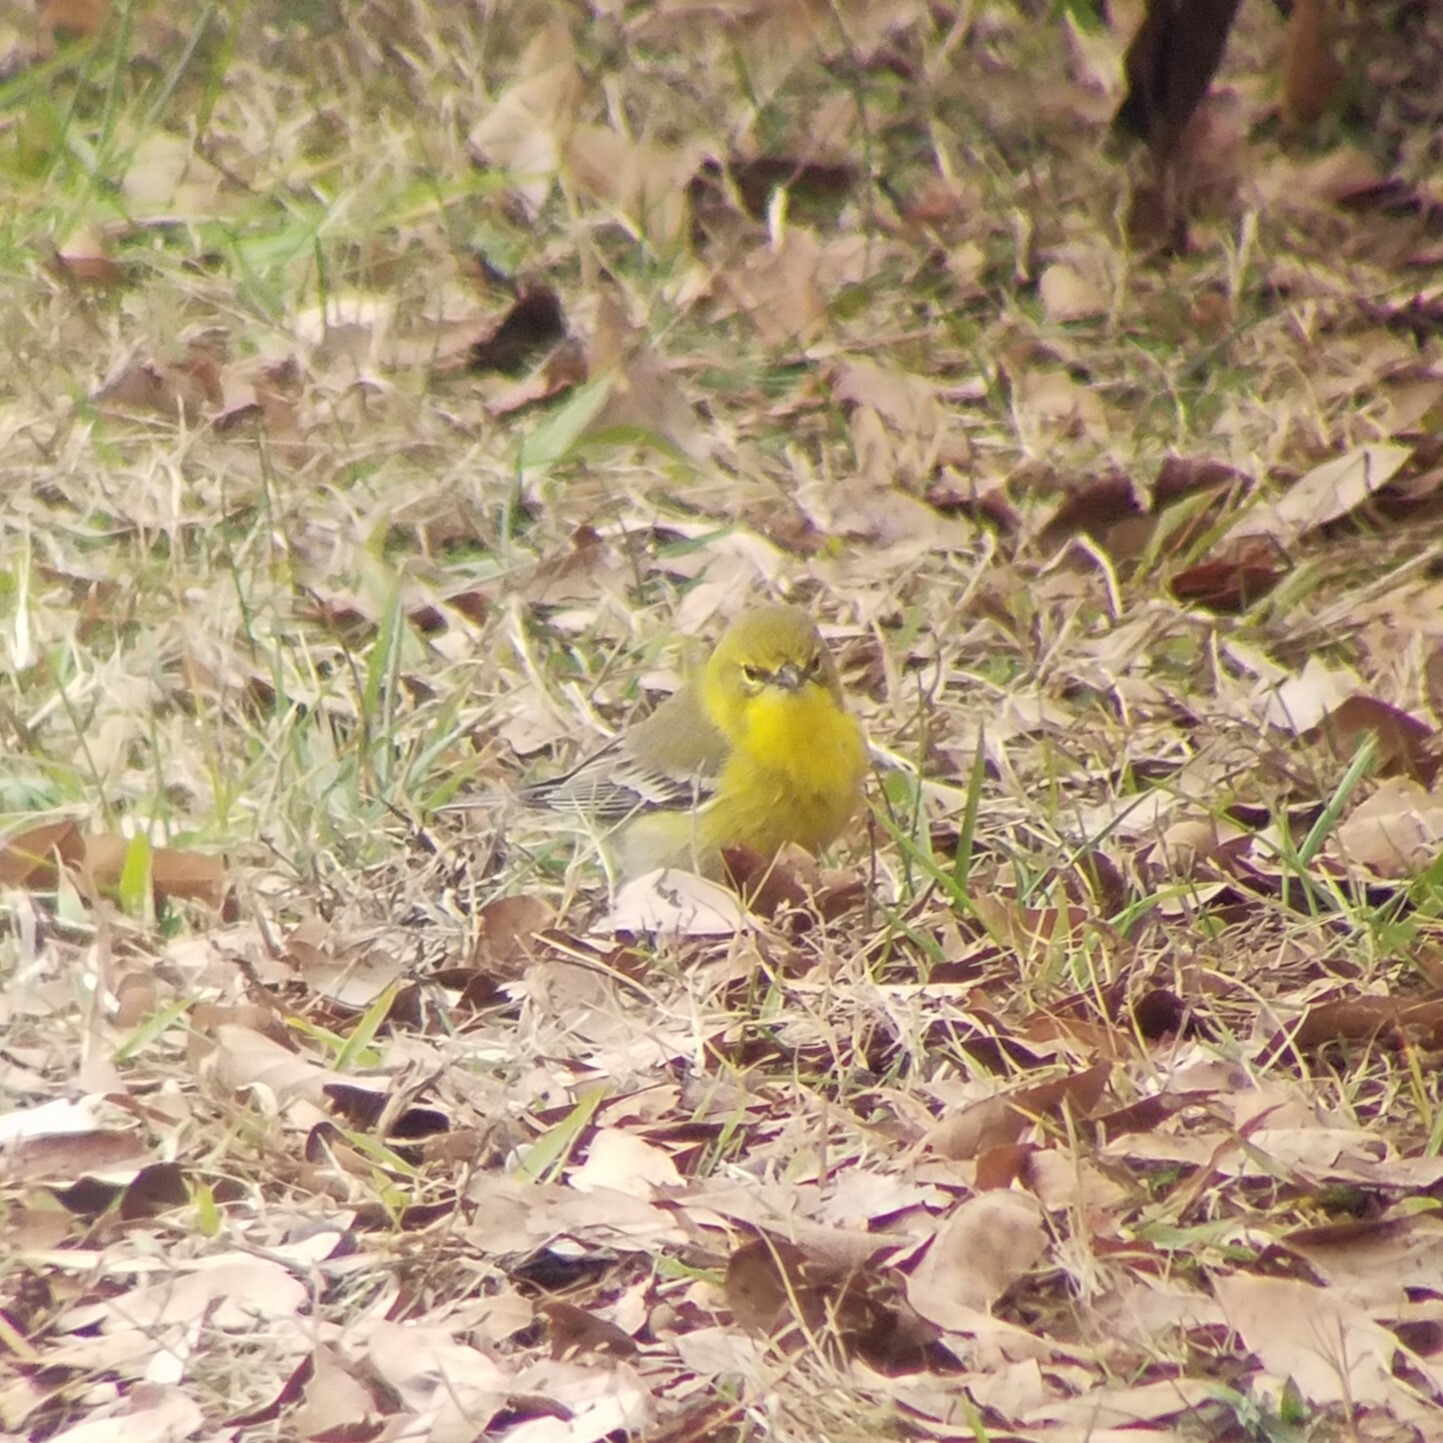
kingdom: Animalia
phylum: Chordata
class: Aves
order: Passeriformes
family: Parulidae
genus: Setophaga
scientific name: Setophaga pinus
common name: Pine warbler
